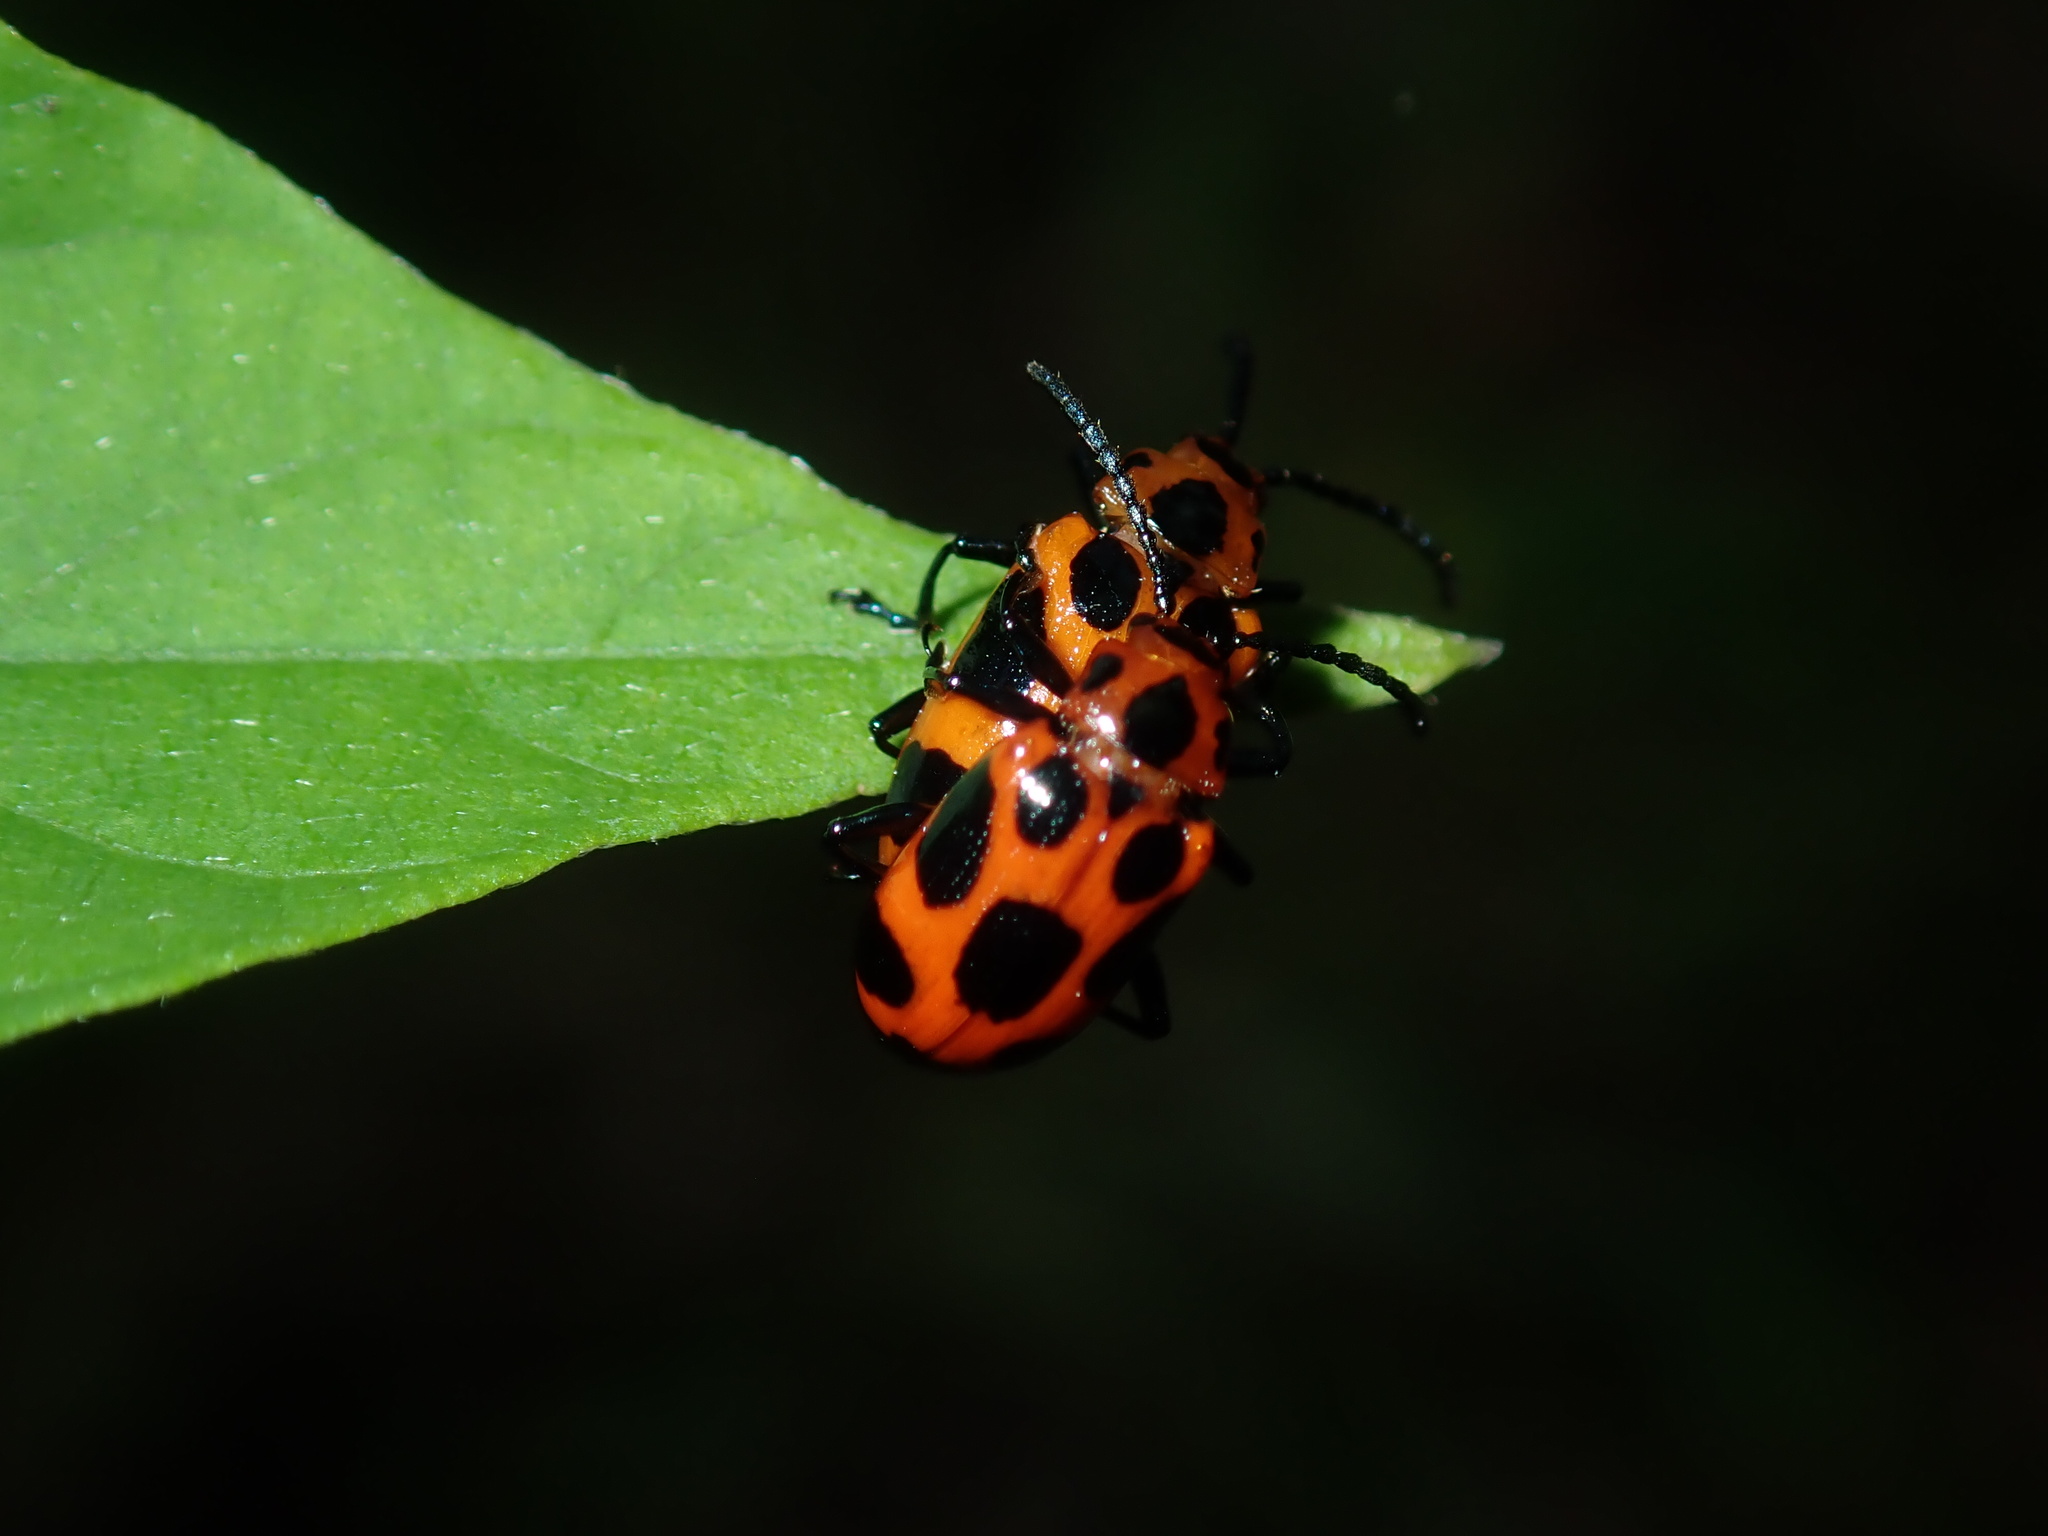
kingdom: Animalia
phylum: Arthropoda
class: Insecta
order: Coleoptera
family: Chrysomelidae
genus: Phyllocharis
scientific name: Phyllocharis
